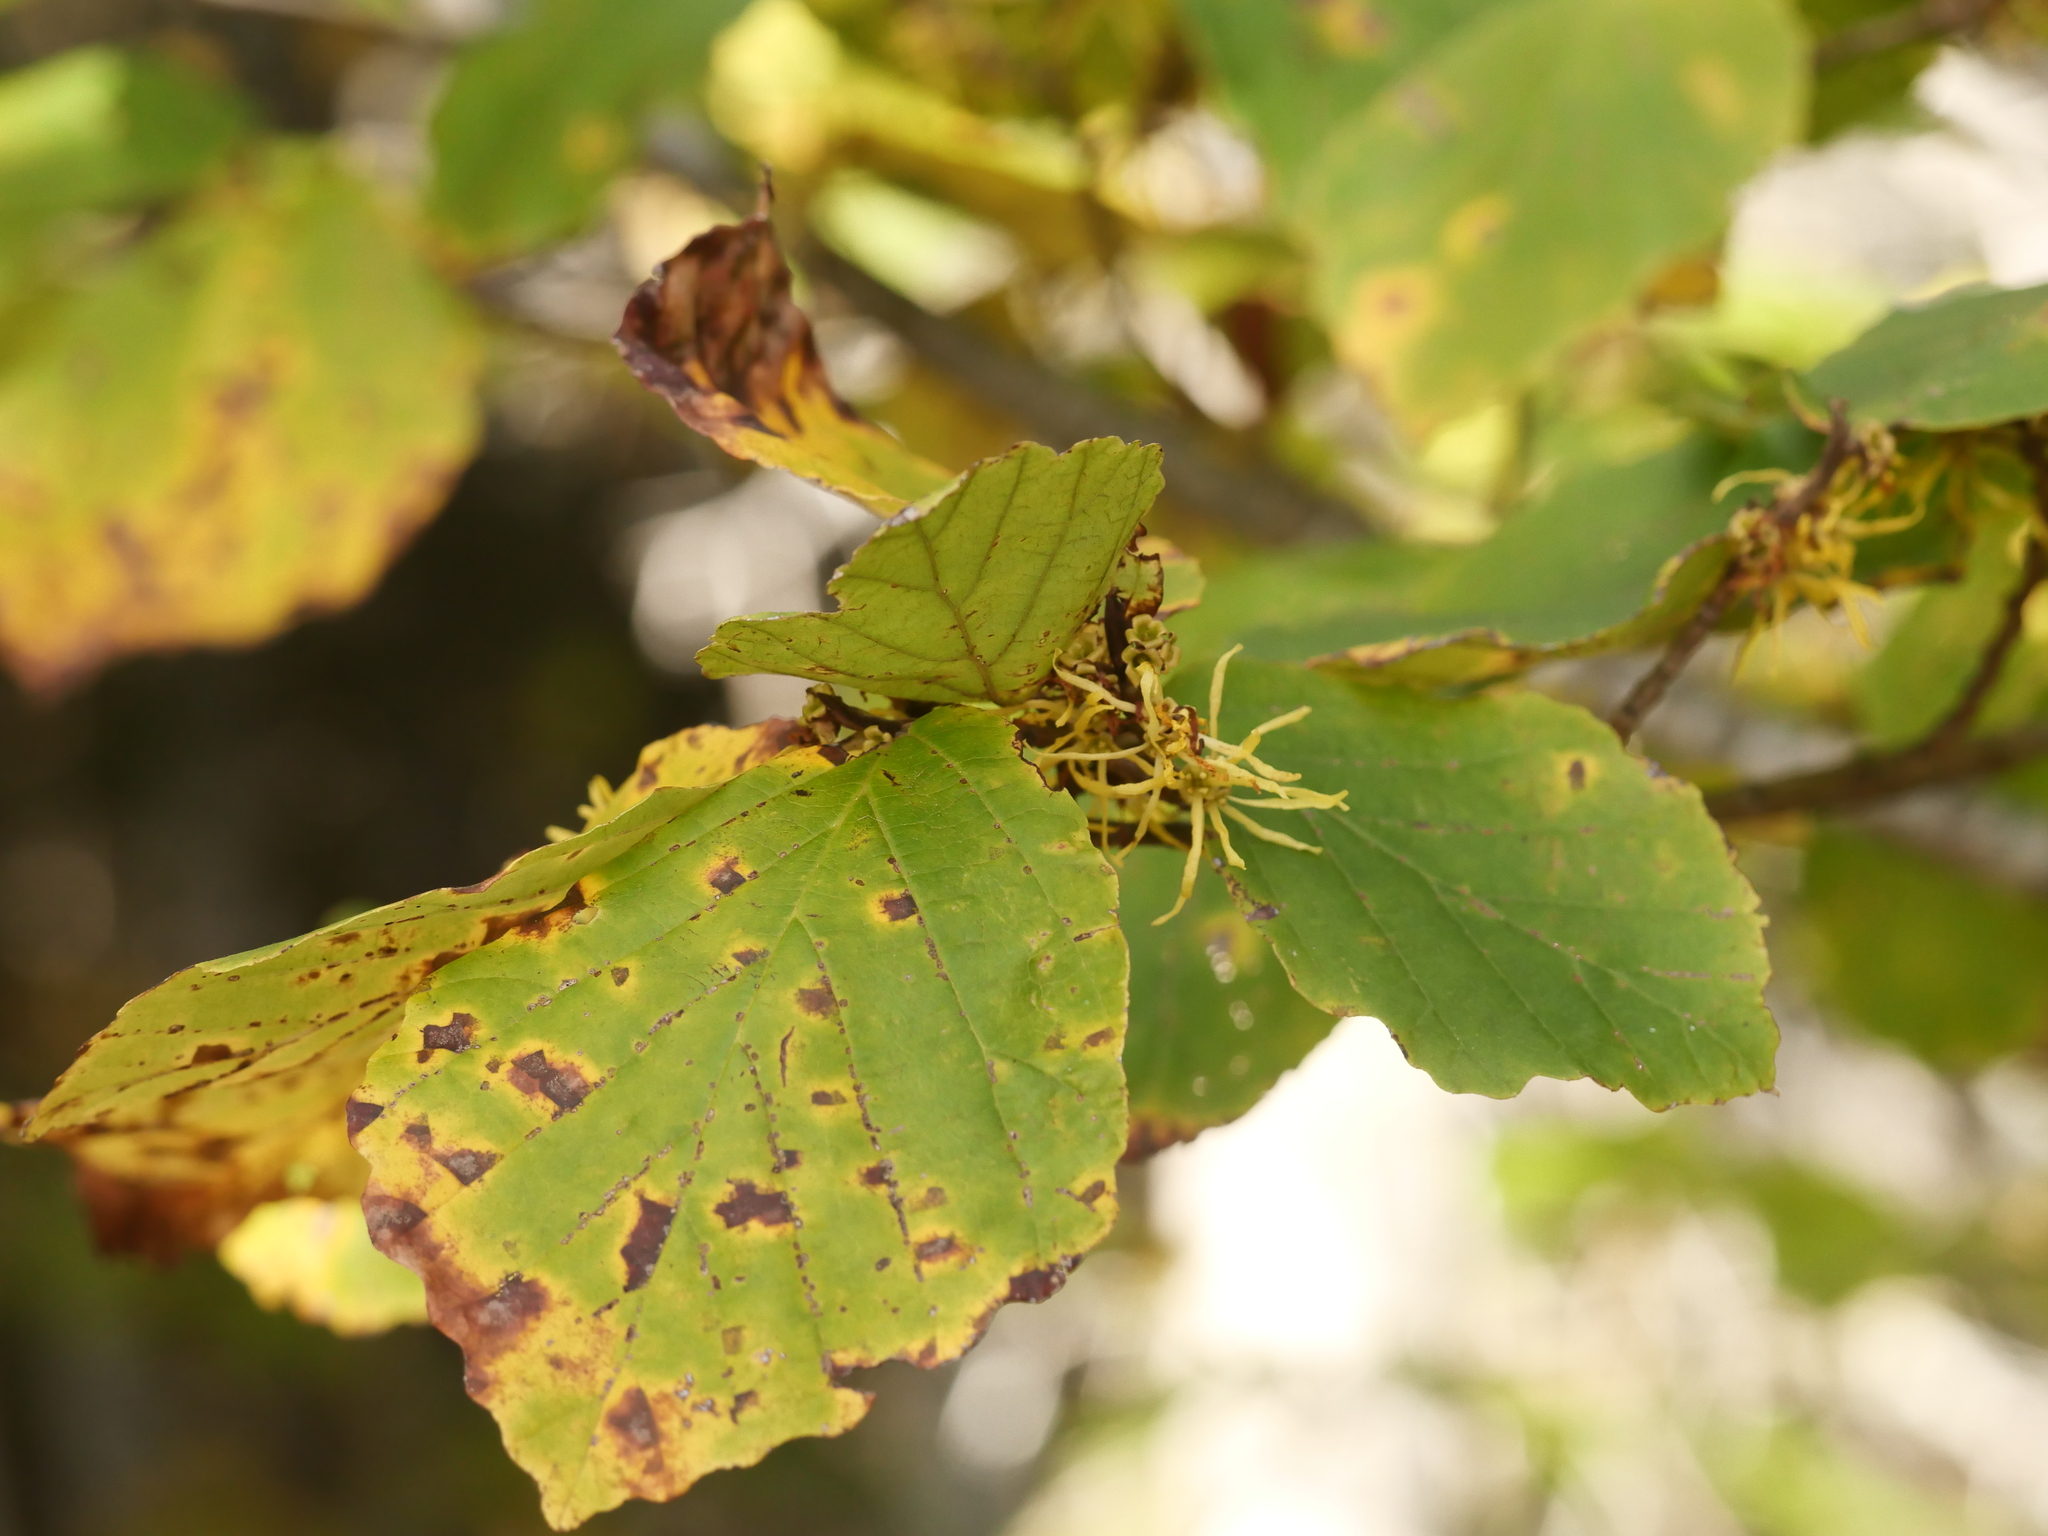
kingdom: Plantae
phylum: Tracheophyta
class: Magnoliopsida
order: Saxifragales
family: Hamamelidaceae
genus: Hamamelis
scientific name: Hamamelis virginiana
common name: Witch-hazel
